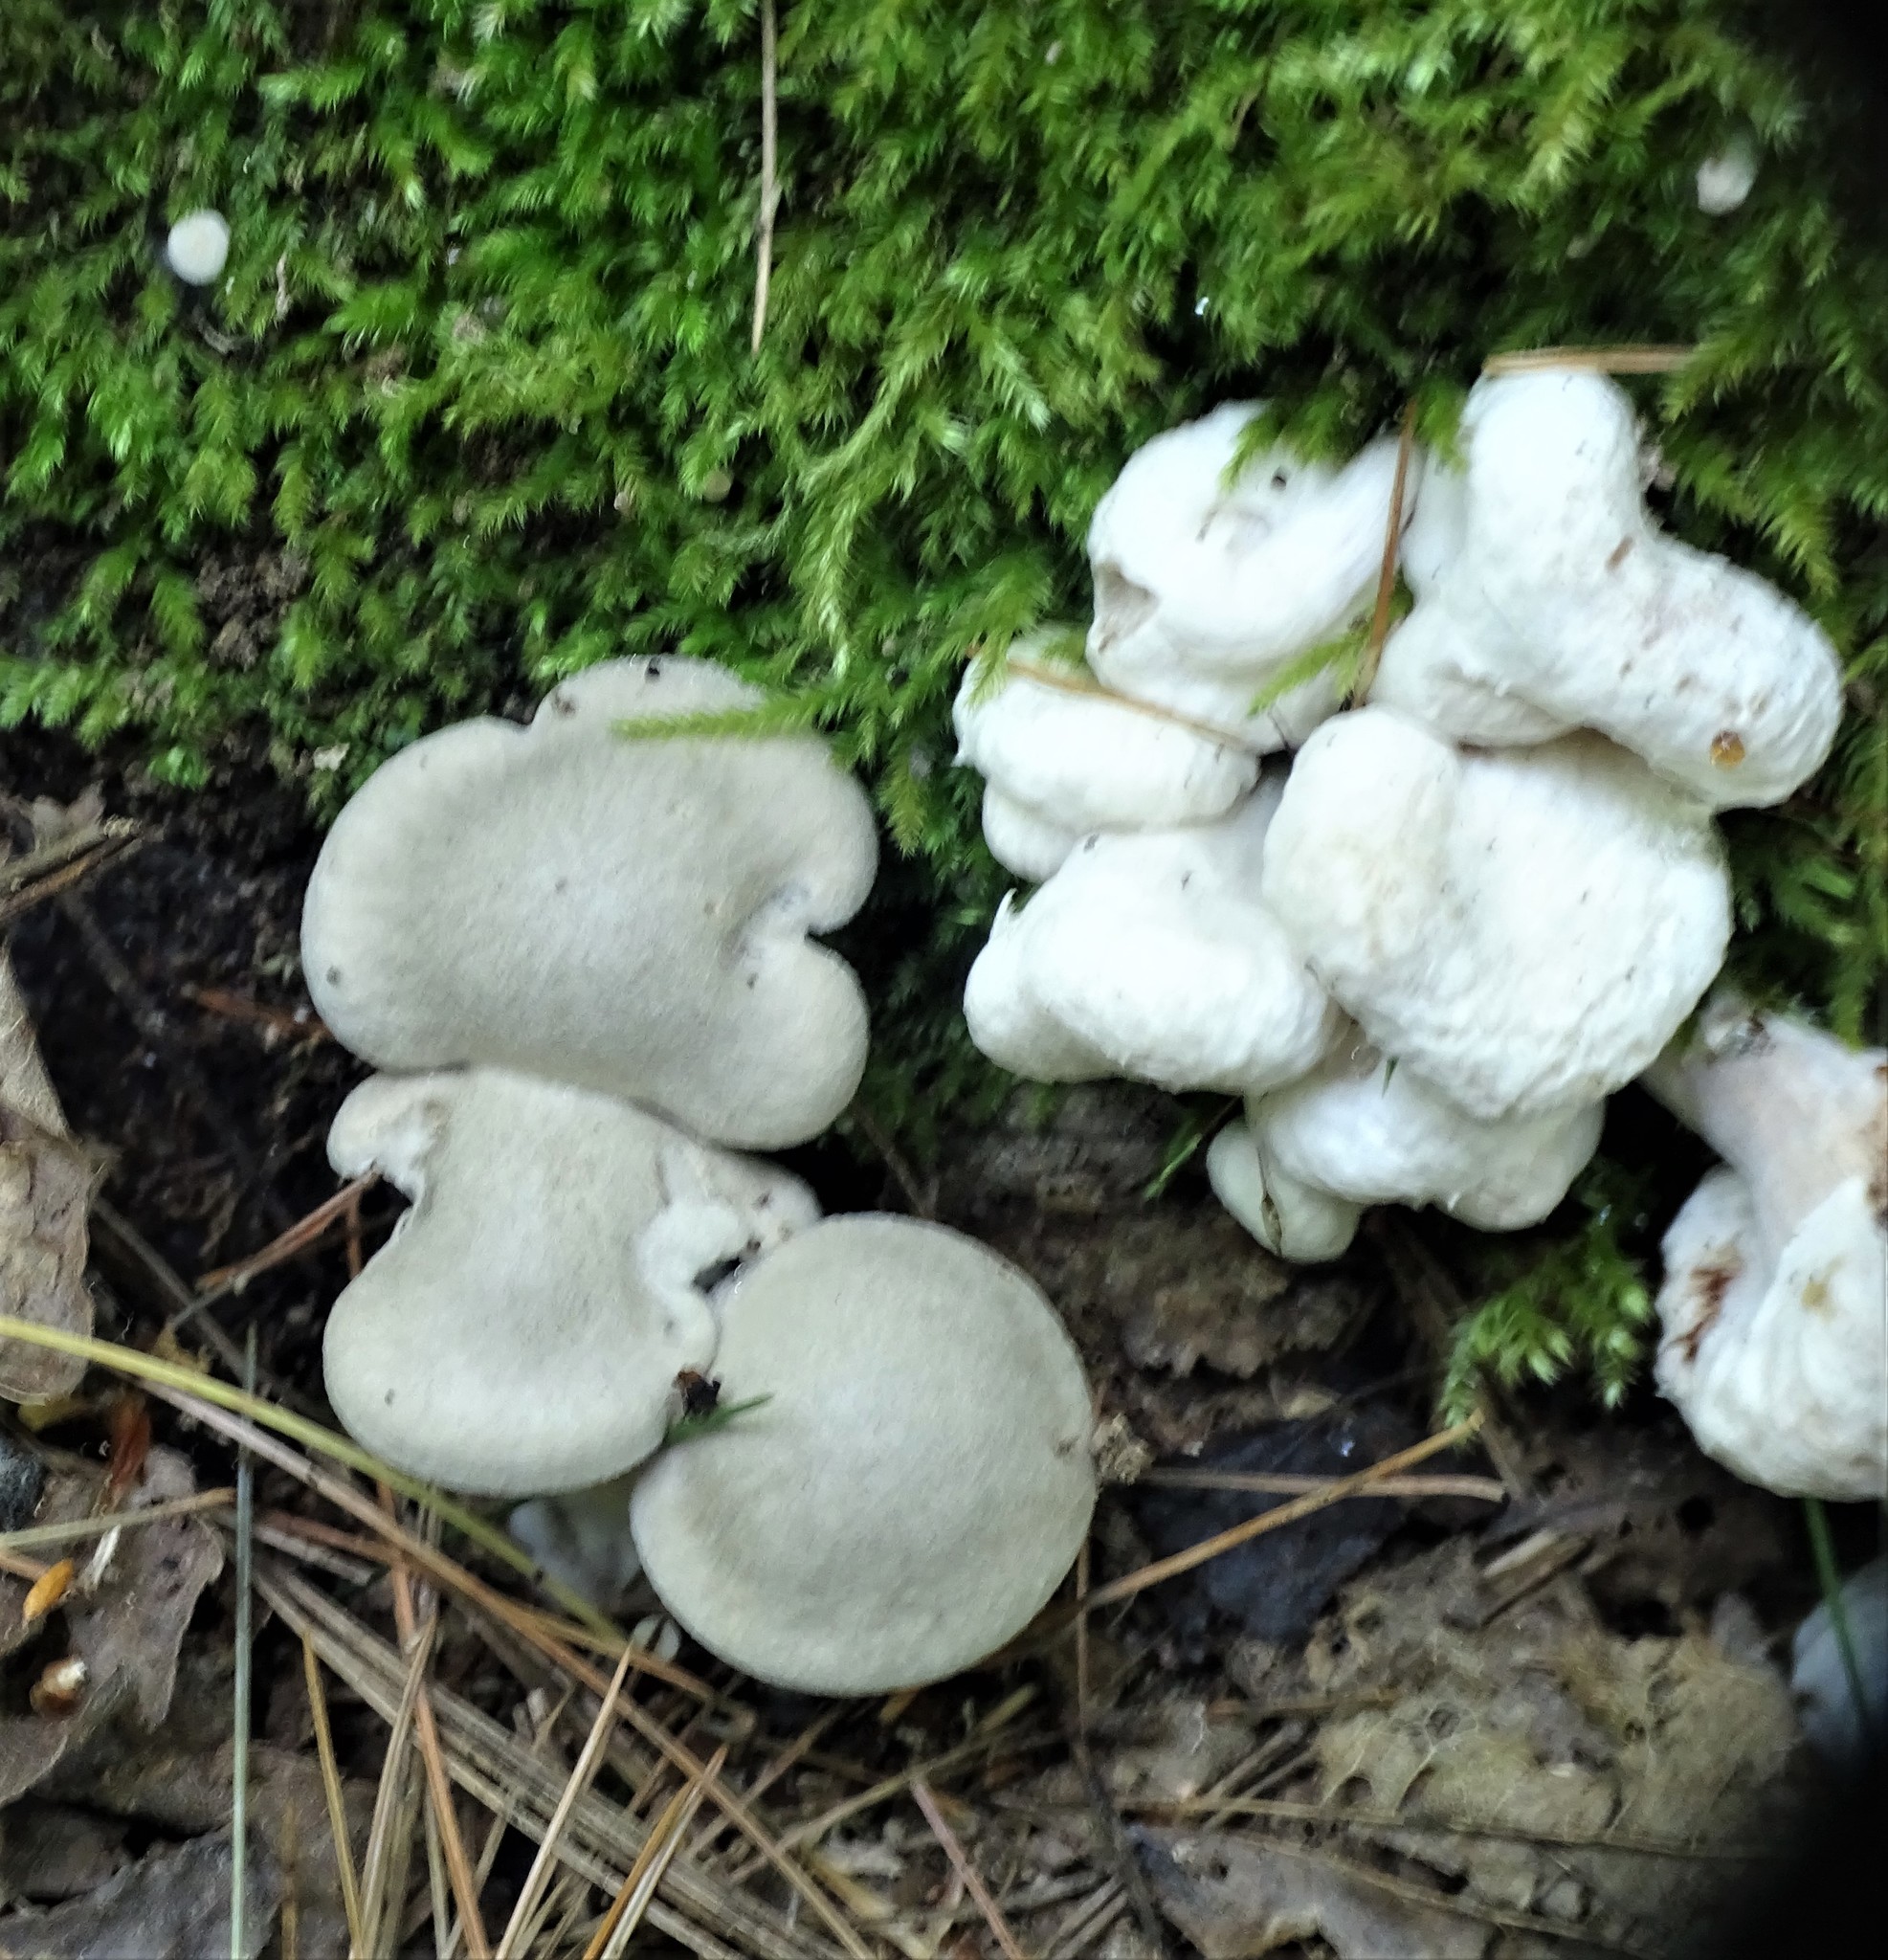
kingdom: Fungi
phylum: Basidiomycota
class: Agaricomycetes
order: Agaricales
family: Entolomataceae
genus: Entoloma
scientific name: Entoloma abortivum
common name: Aborted entoloma
